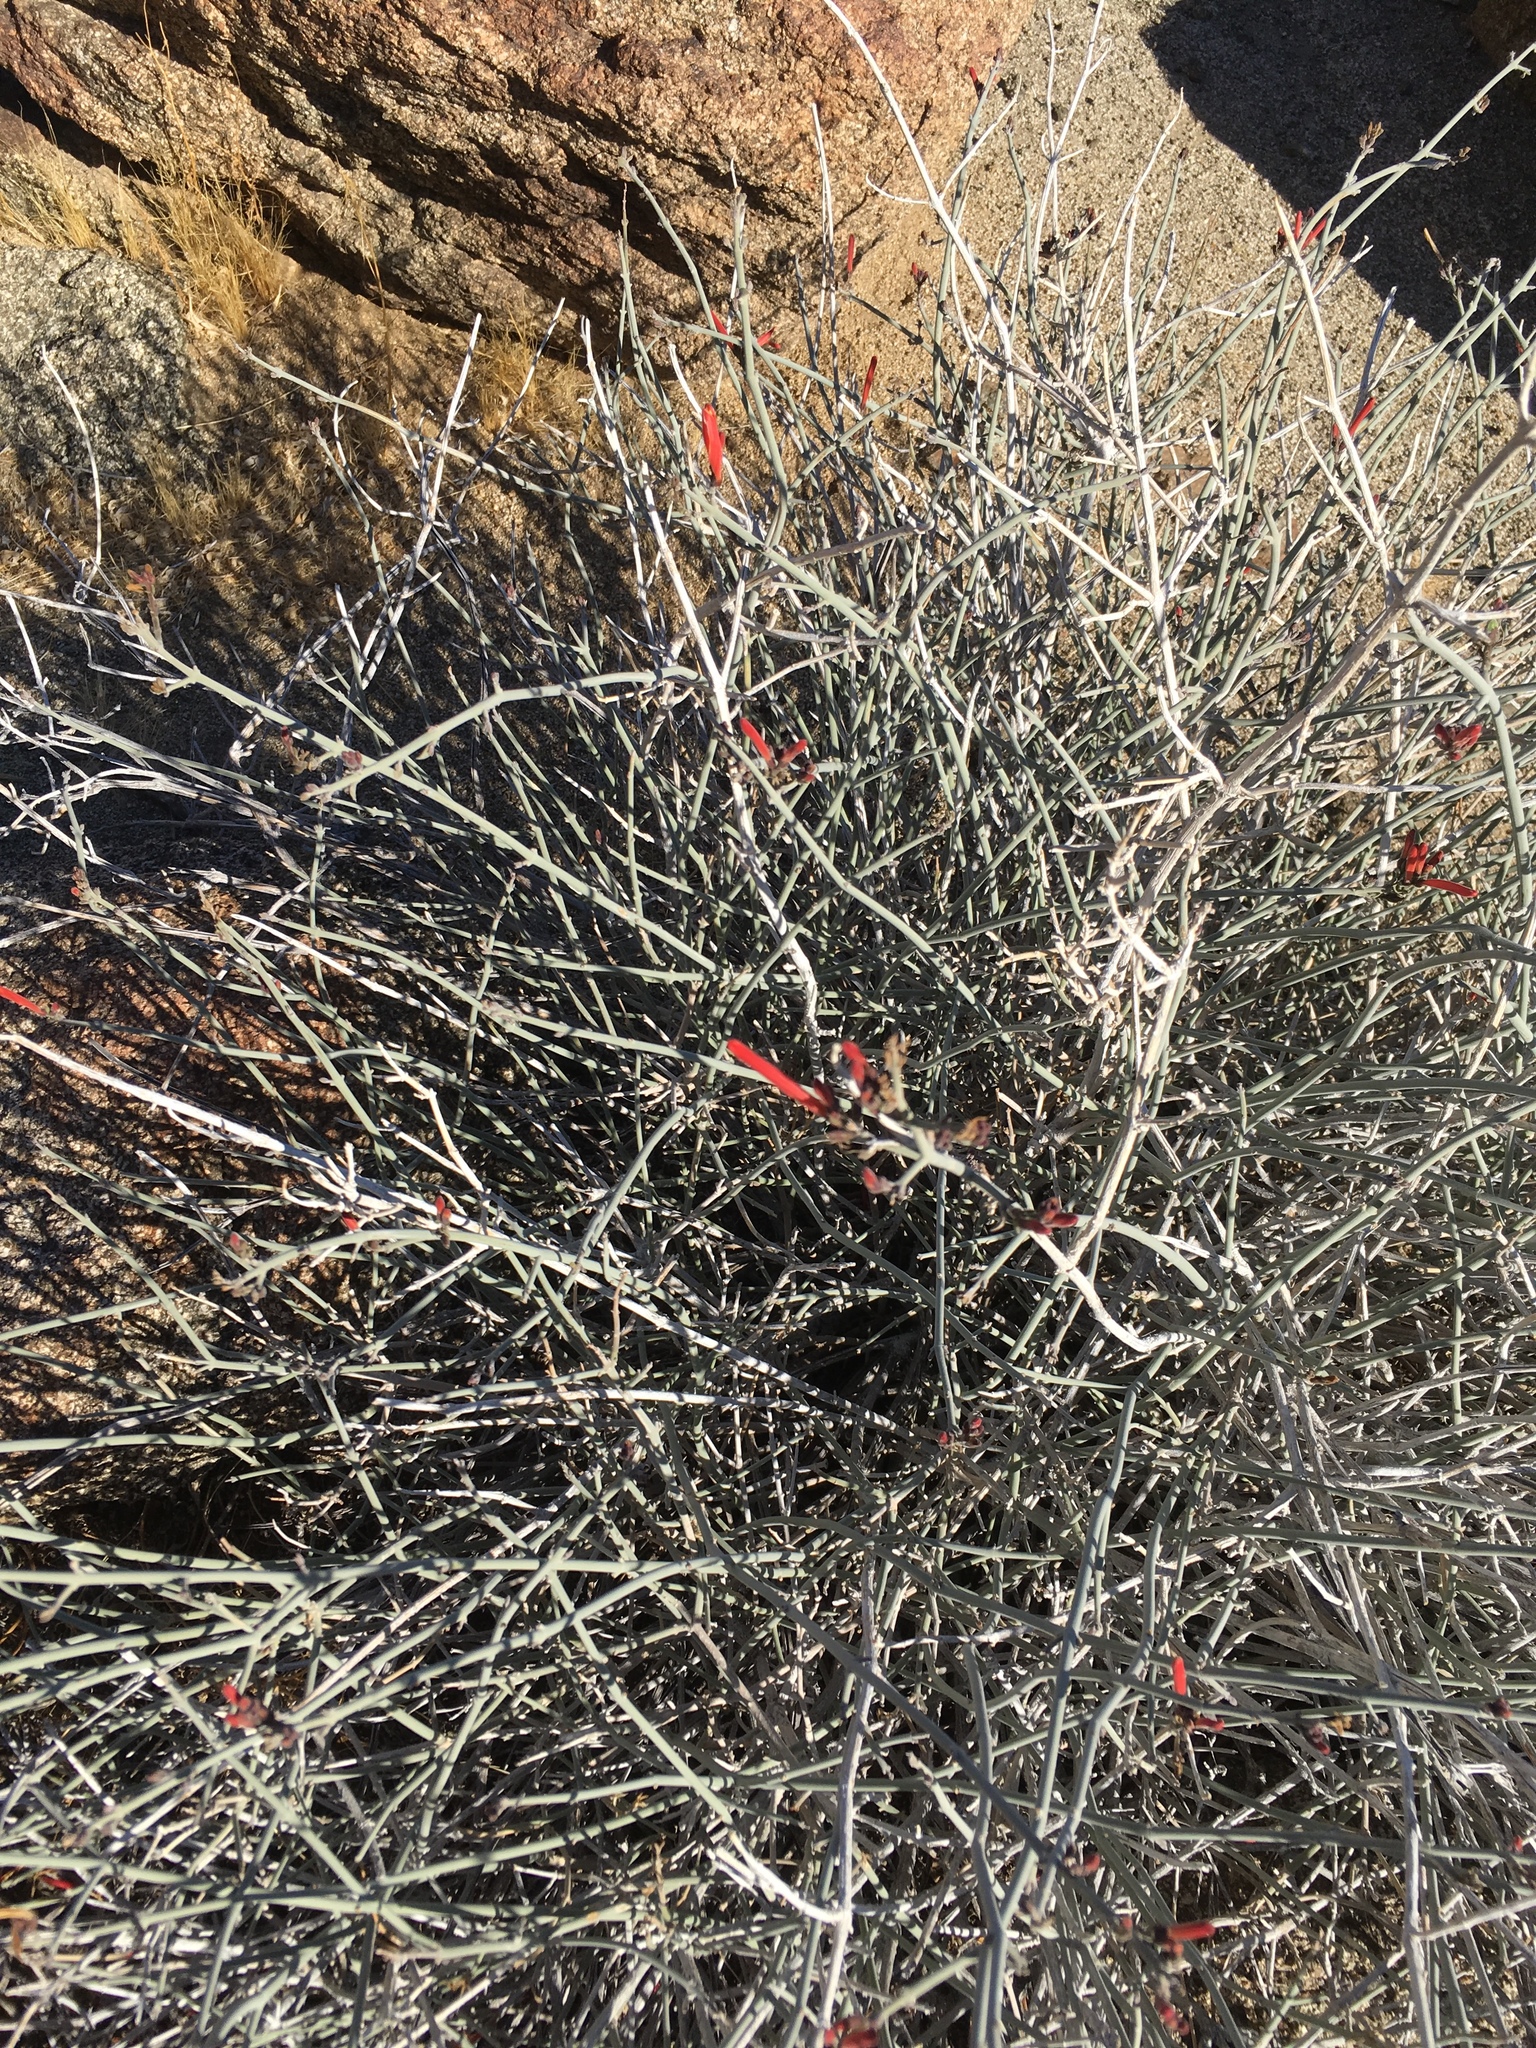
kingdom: Plantae
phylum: Tracheophyta
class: Magnoliopsida
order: Lamiales
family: Acanthaceae
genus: Justicia
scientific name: Justicia californica
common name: Chuparosa-honeysuckle
